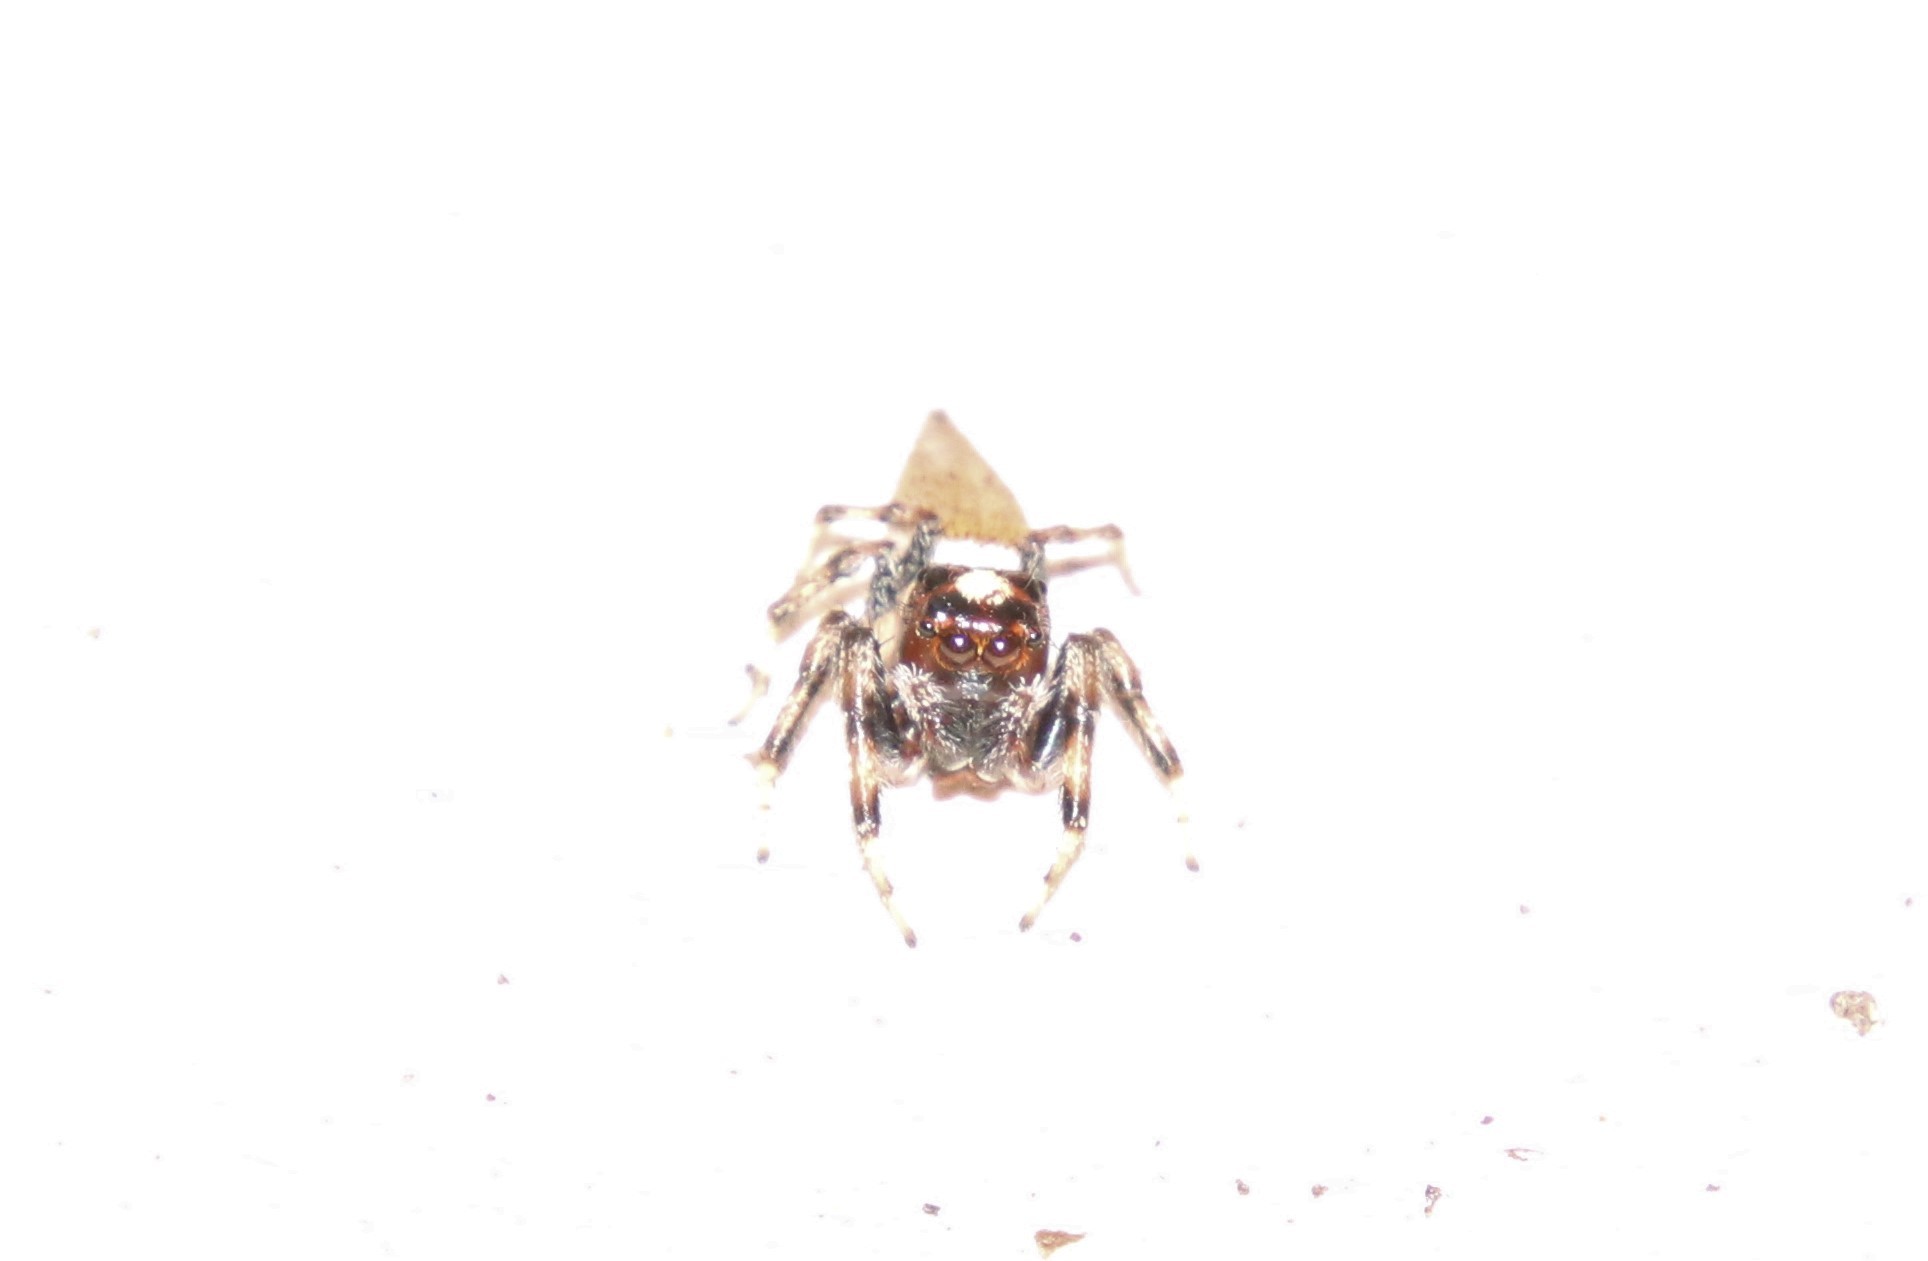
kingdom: Animalia
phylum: Arthropoda
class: Arachnida
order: Araneae
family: Salticidae
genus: Colonus
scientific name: Colonus hesperus
